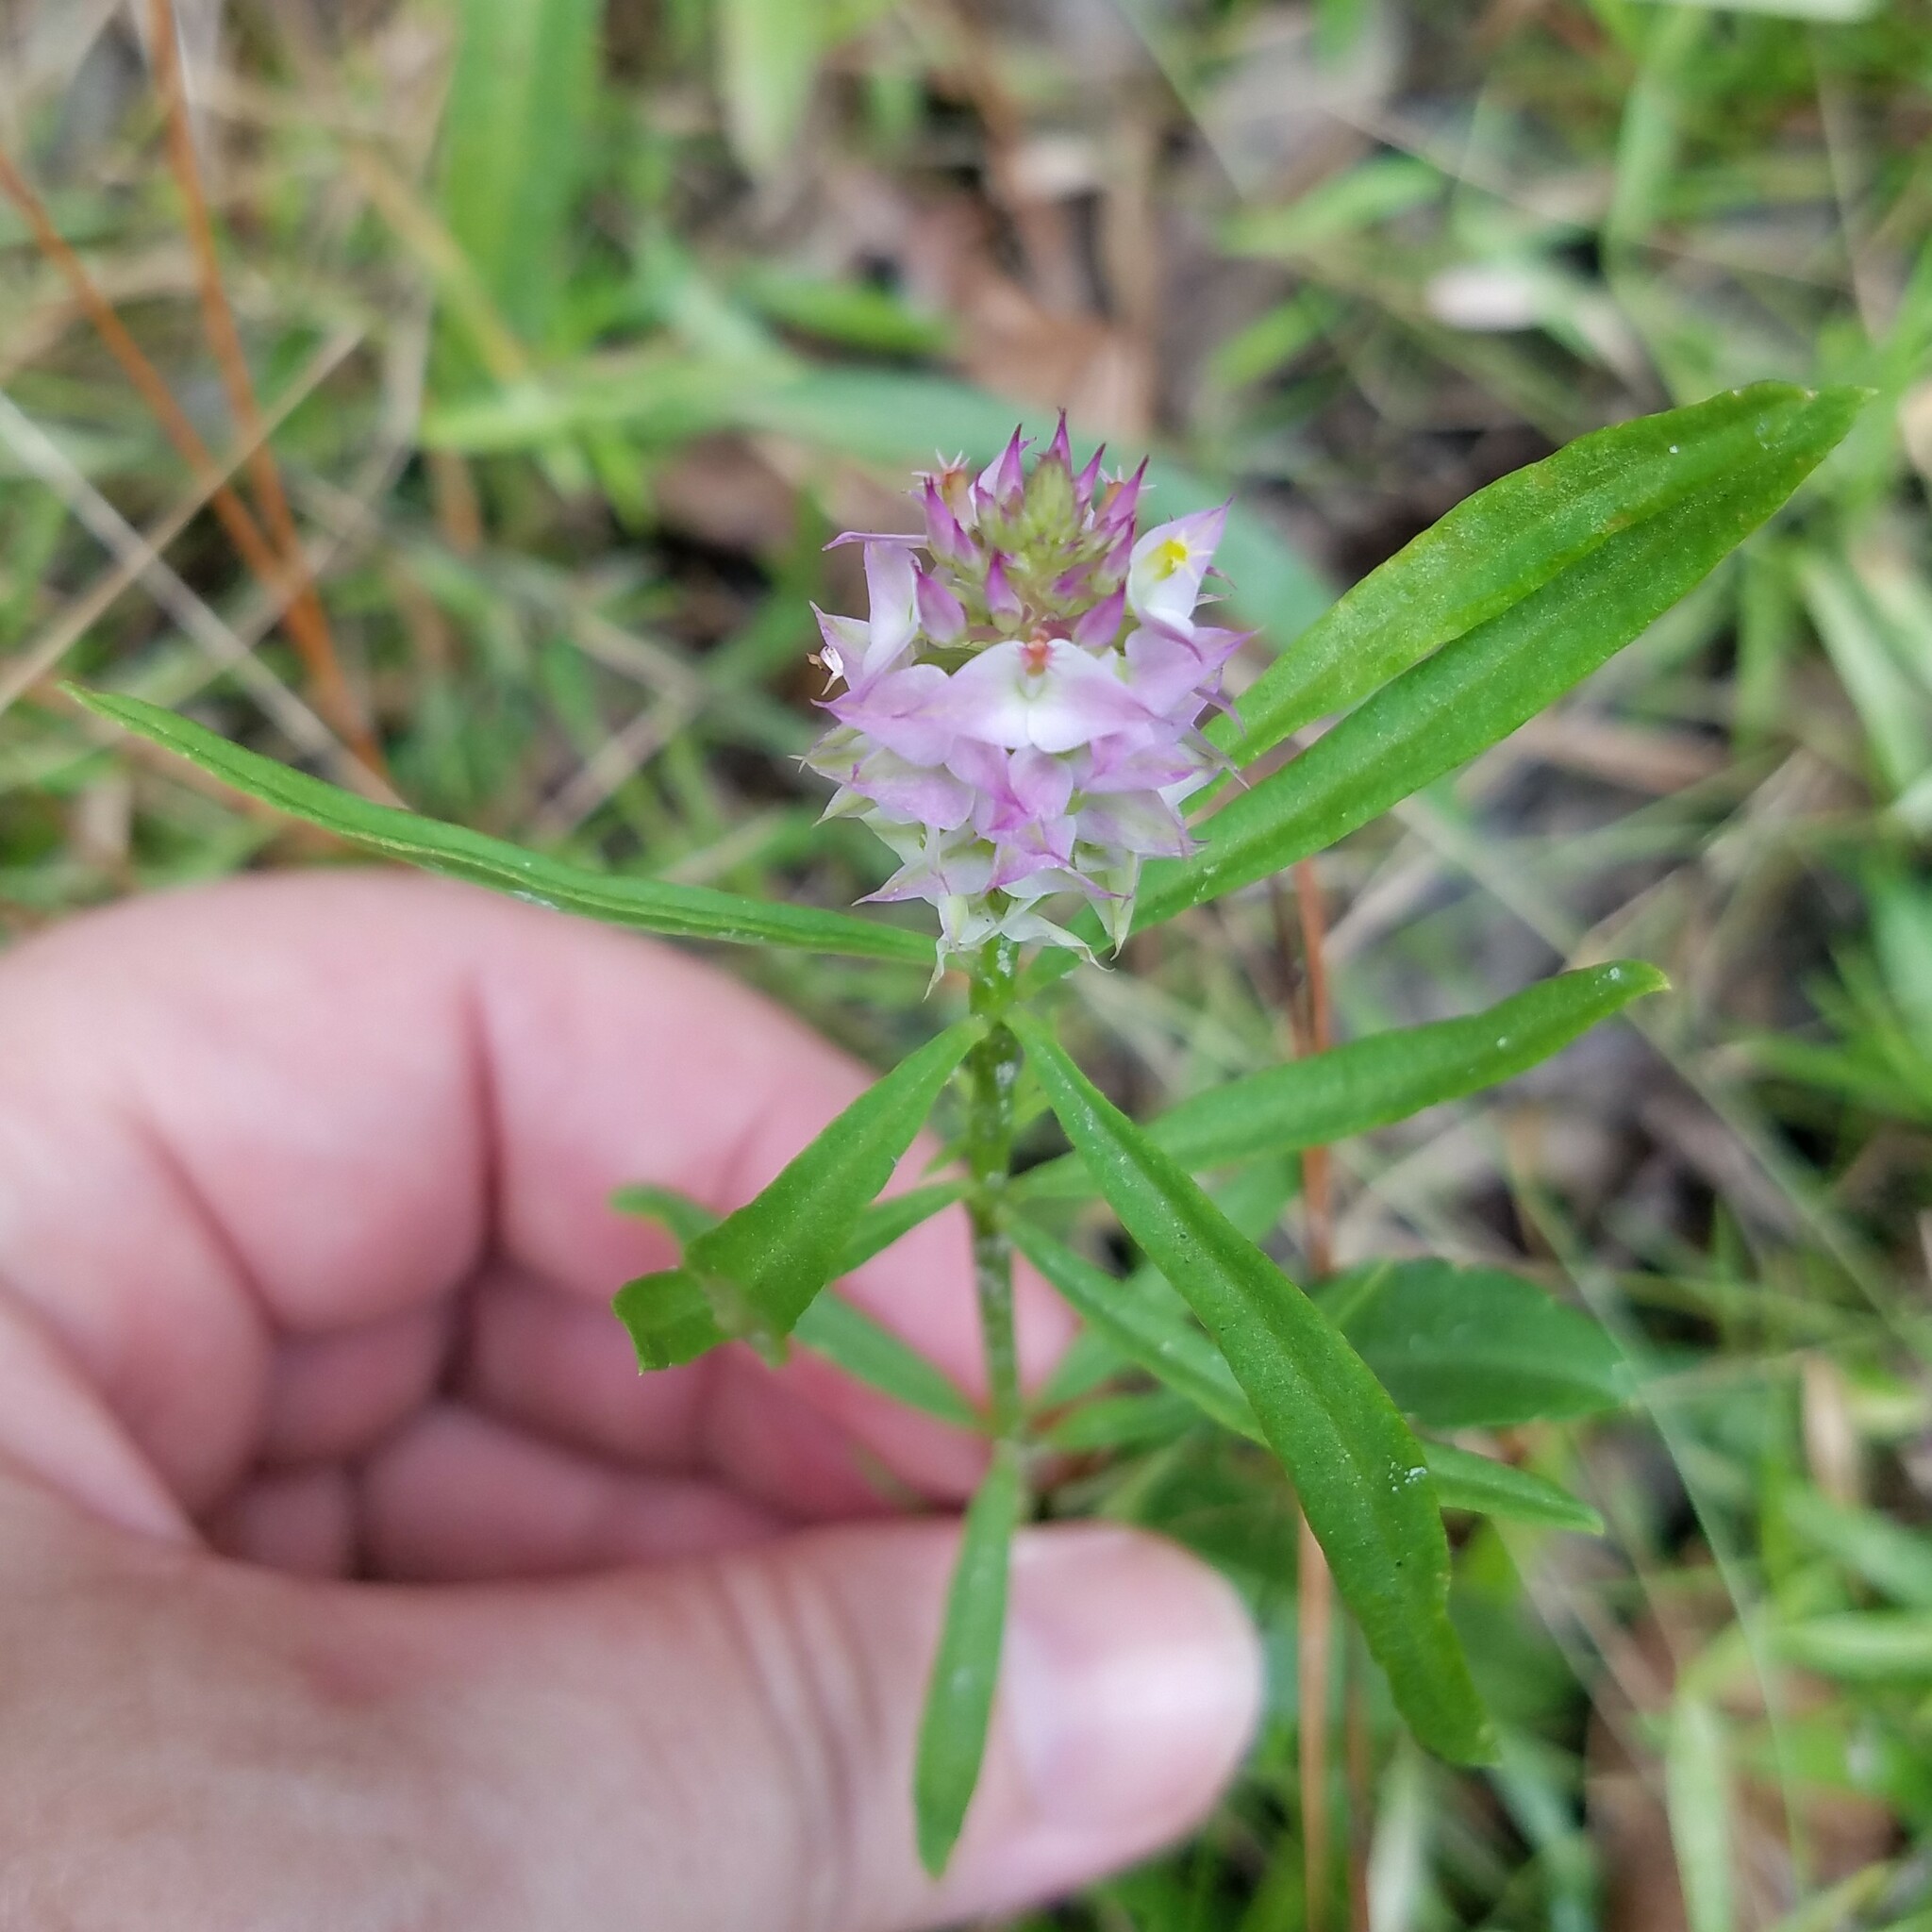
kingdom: Plantae
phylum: Tracheophyta
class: Magnoliopsida
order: Fabales
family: Polygalaceae
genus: Polygala
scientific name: Polygala cruciata
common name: Drumheads
